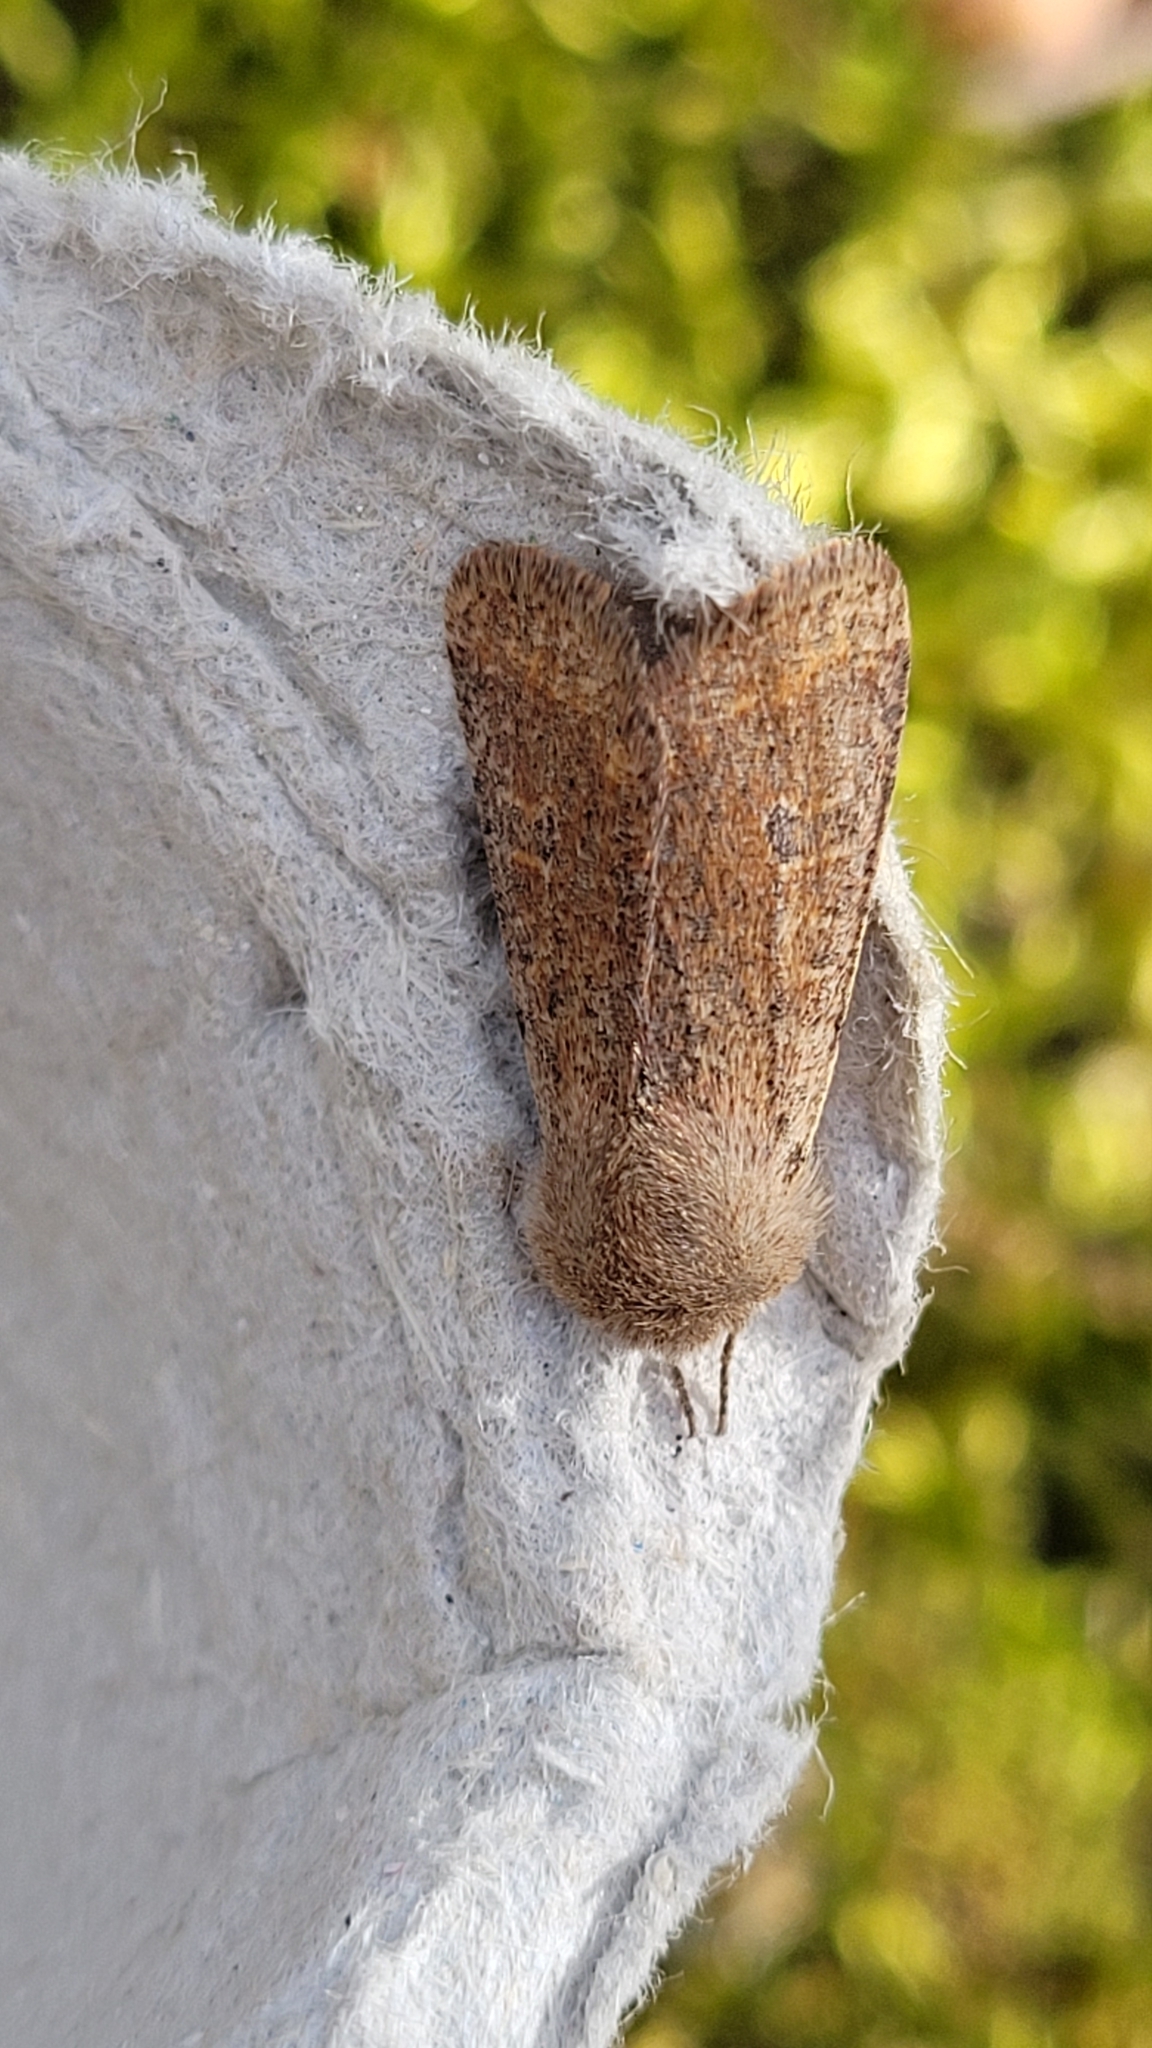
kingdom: Animalia
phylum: Arthropoda
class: Insecta
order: Lepidoptera
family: Noctuidae
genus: Orthosia
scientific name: Orthosia cruda
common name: Small quaker
